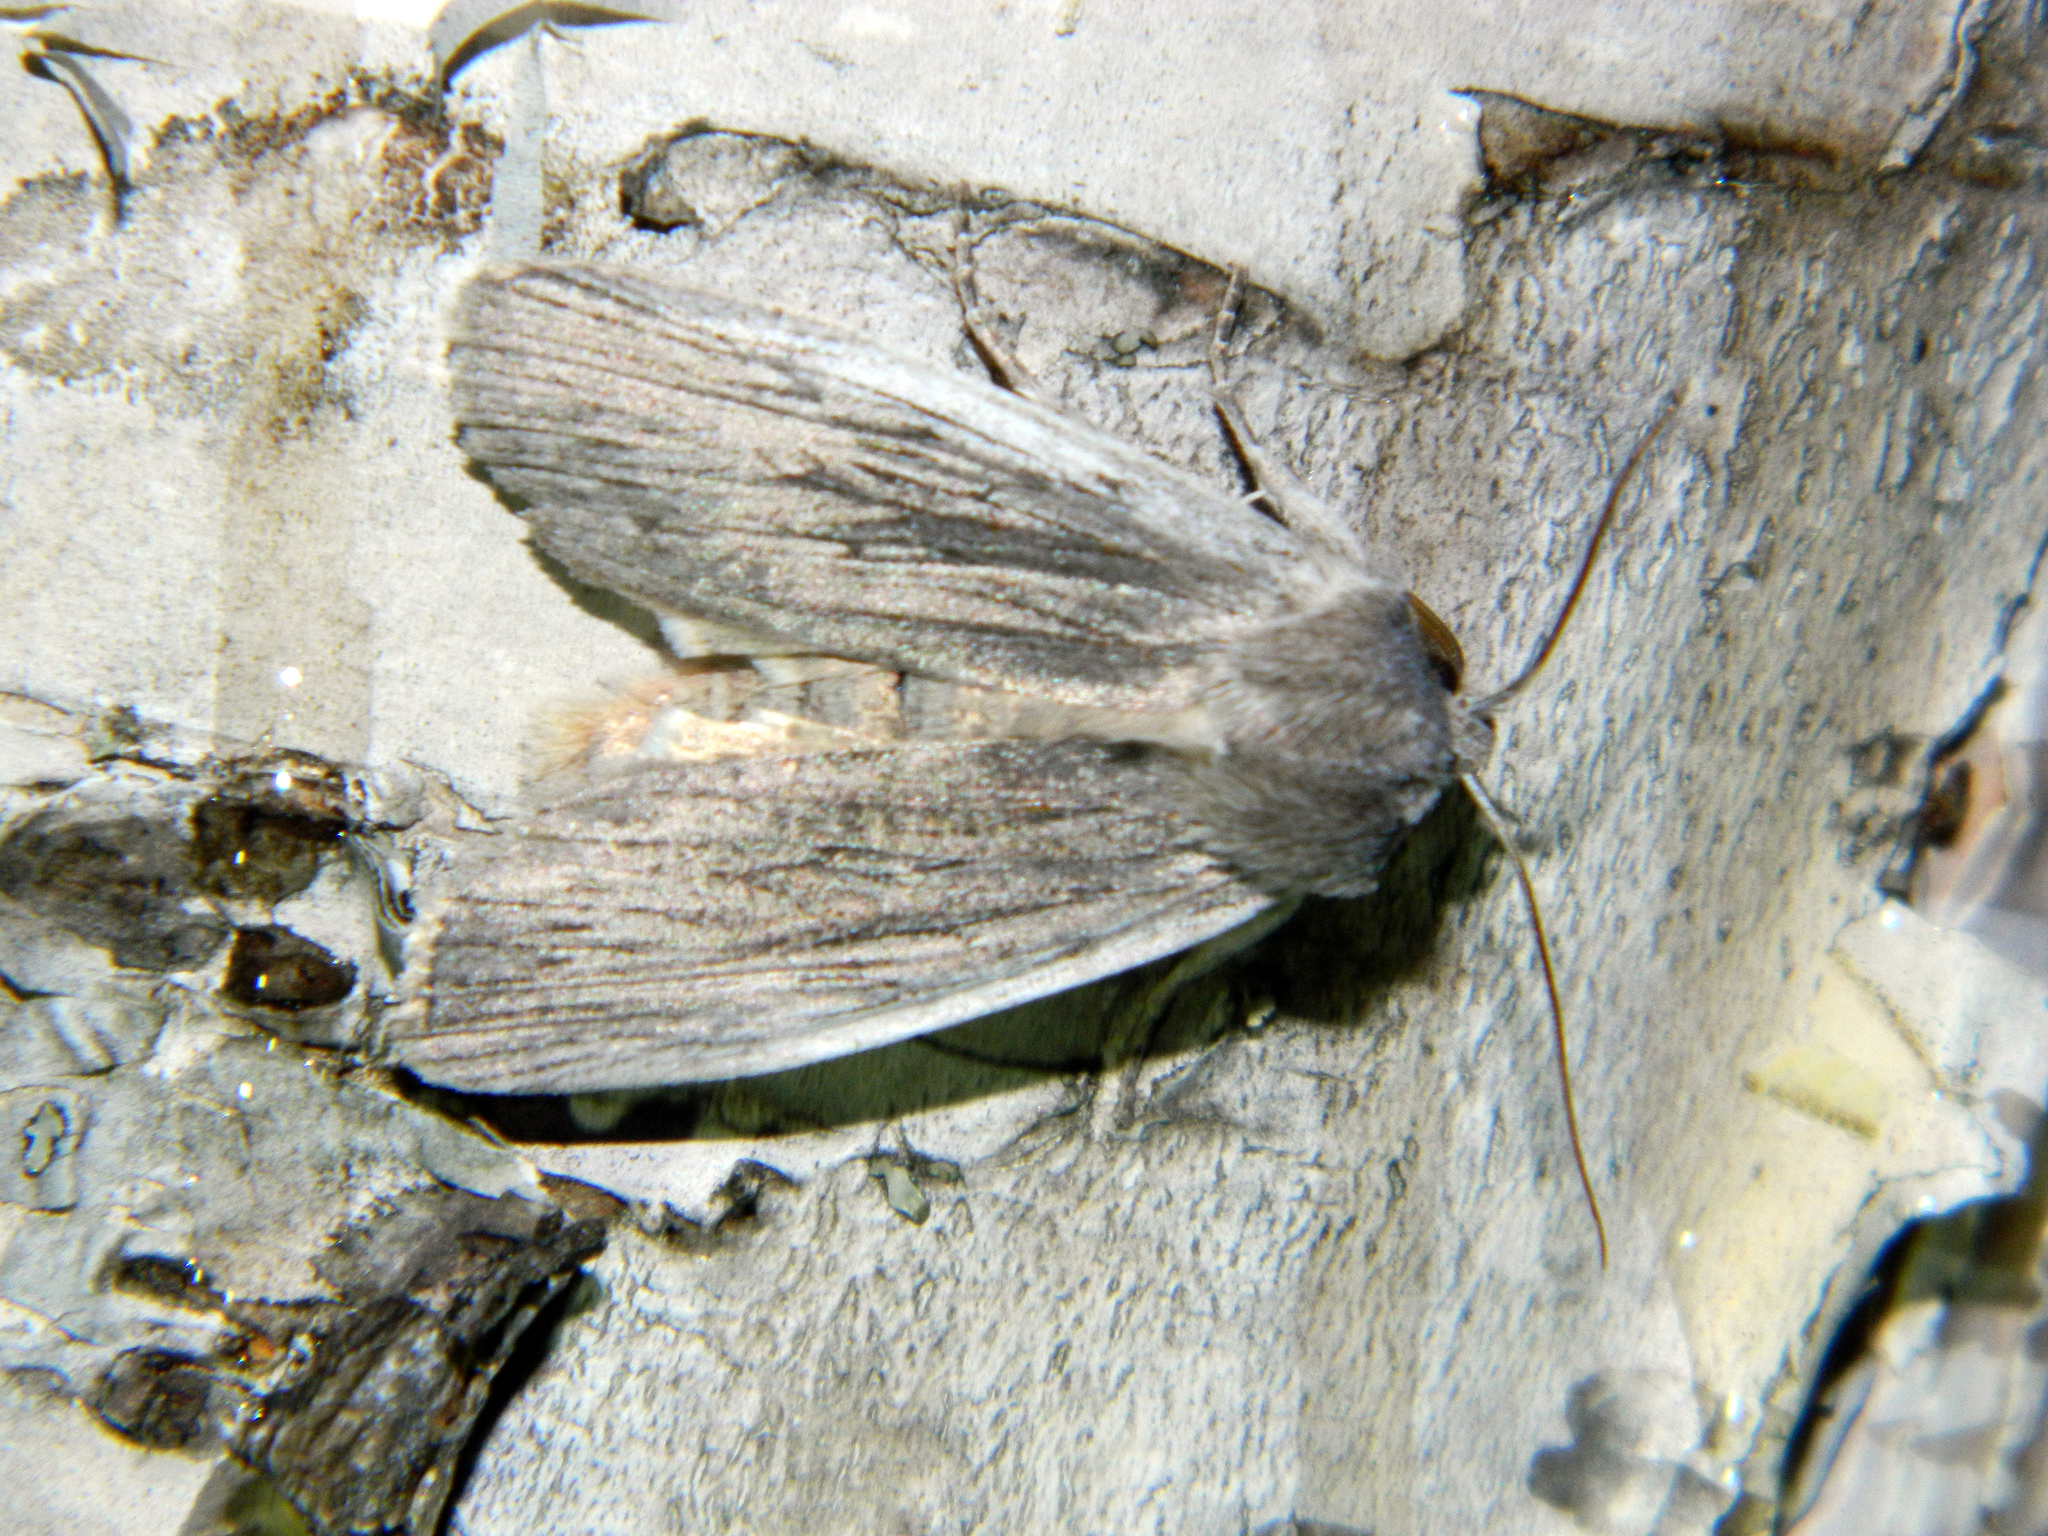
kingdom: Animalia
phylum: Arthropoda
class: Insecta
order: Lepidoptera
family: Noctuidae
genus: Lithophane
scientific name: Lithophane fagina
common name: Hoary pinion moth
